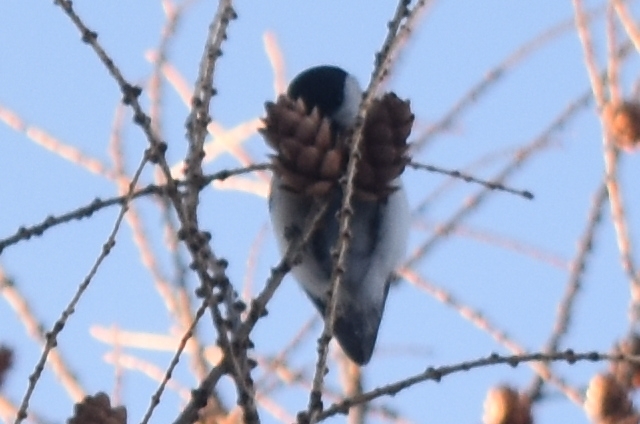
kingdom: Animalia
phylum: Chordata
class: Aves
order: Passeriformes
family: Paridae
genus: Poecile
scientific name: Poecile montanus
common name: Willow tit
